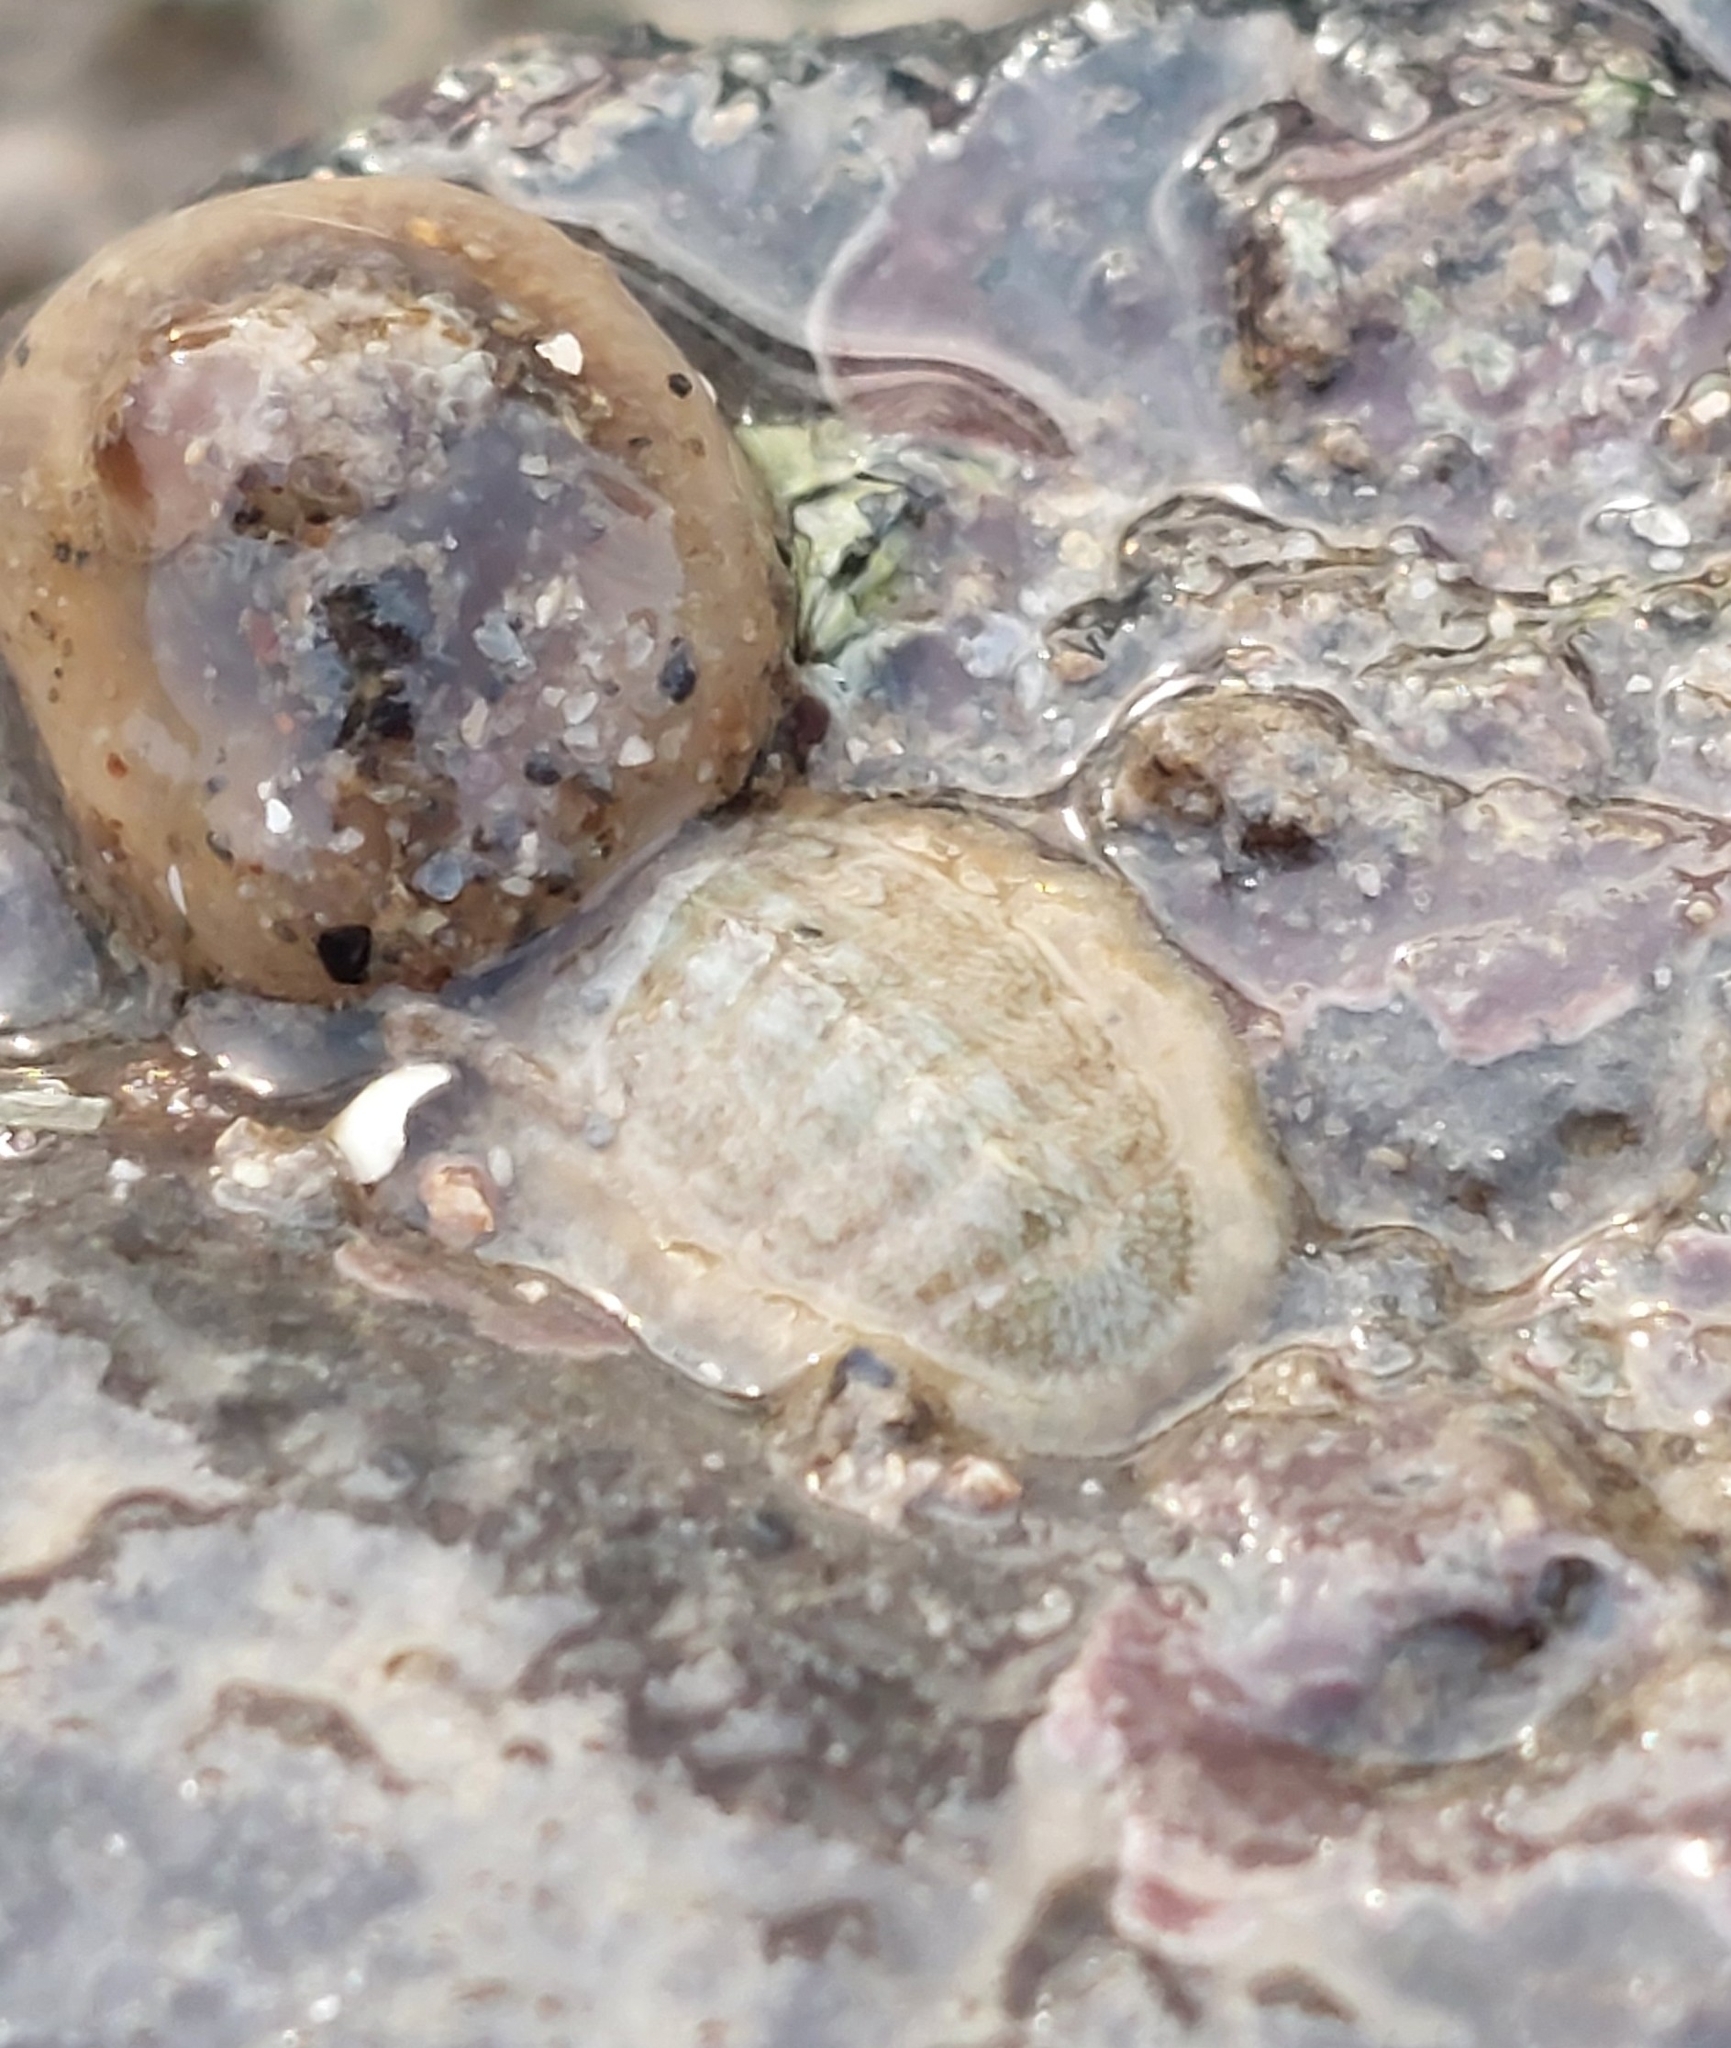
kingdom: Animalia
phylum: Mollusca
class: Polyplacophora
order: Chitonida
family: Tonicellidae
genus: Lepidochitona
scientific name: Lepidochitona cinerea
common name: Cinereous chiton
